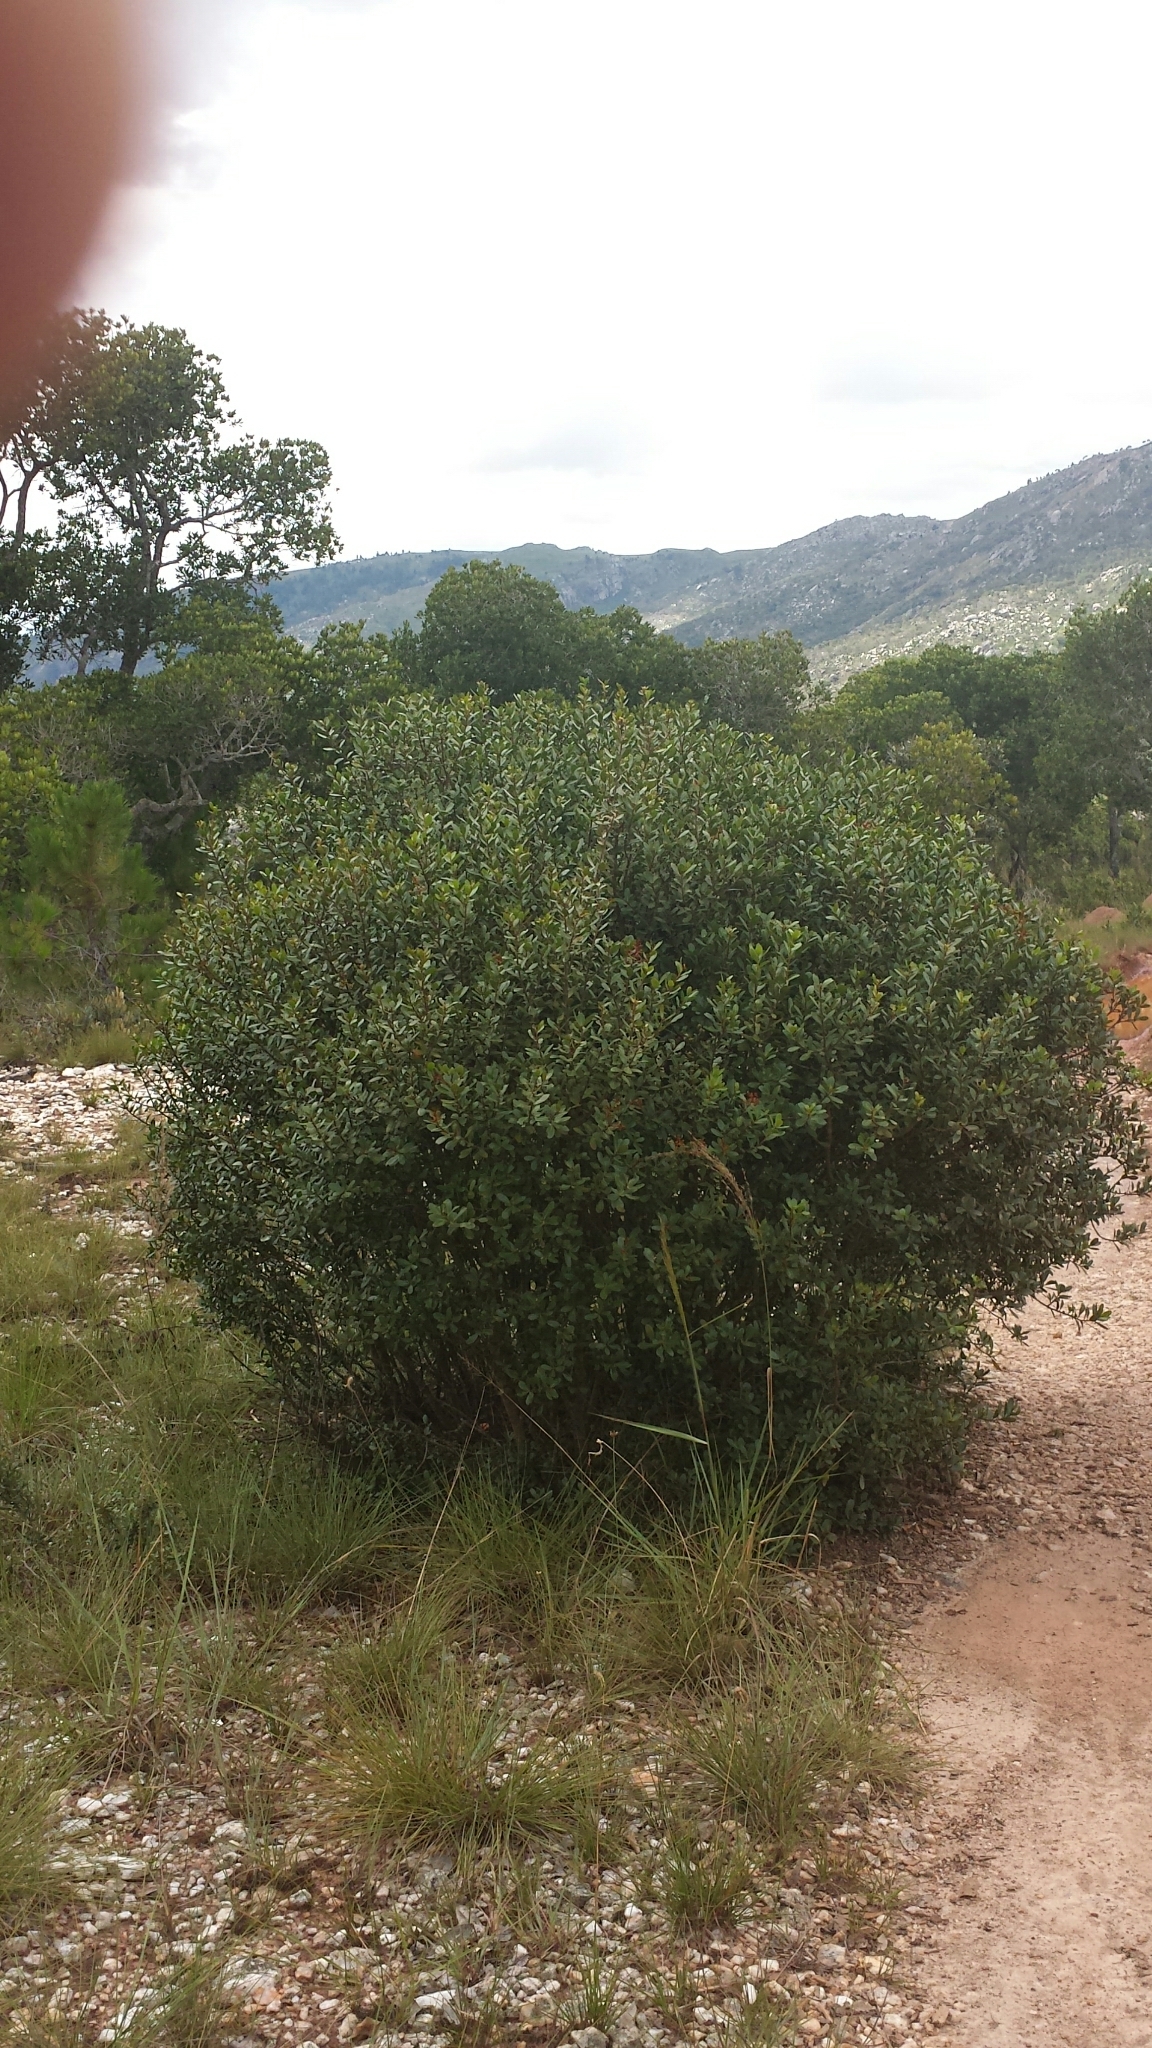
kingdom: Plantae
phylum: Tracheophyta
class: Magnoliopsida
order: Caryophyllales
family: Asteropeiaceae
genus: Asteropeia
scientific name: Asteropeia densiflora
